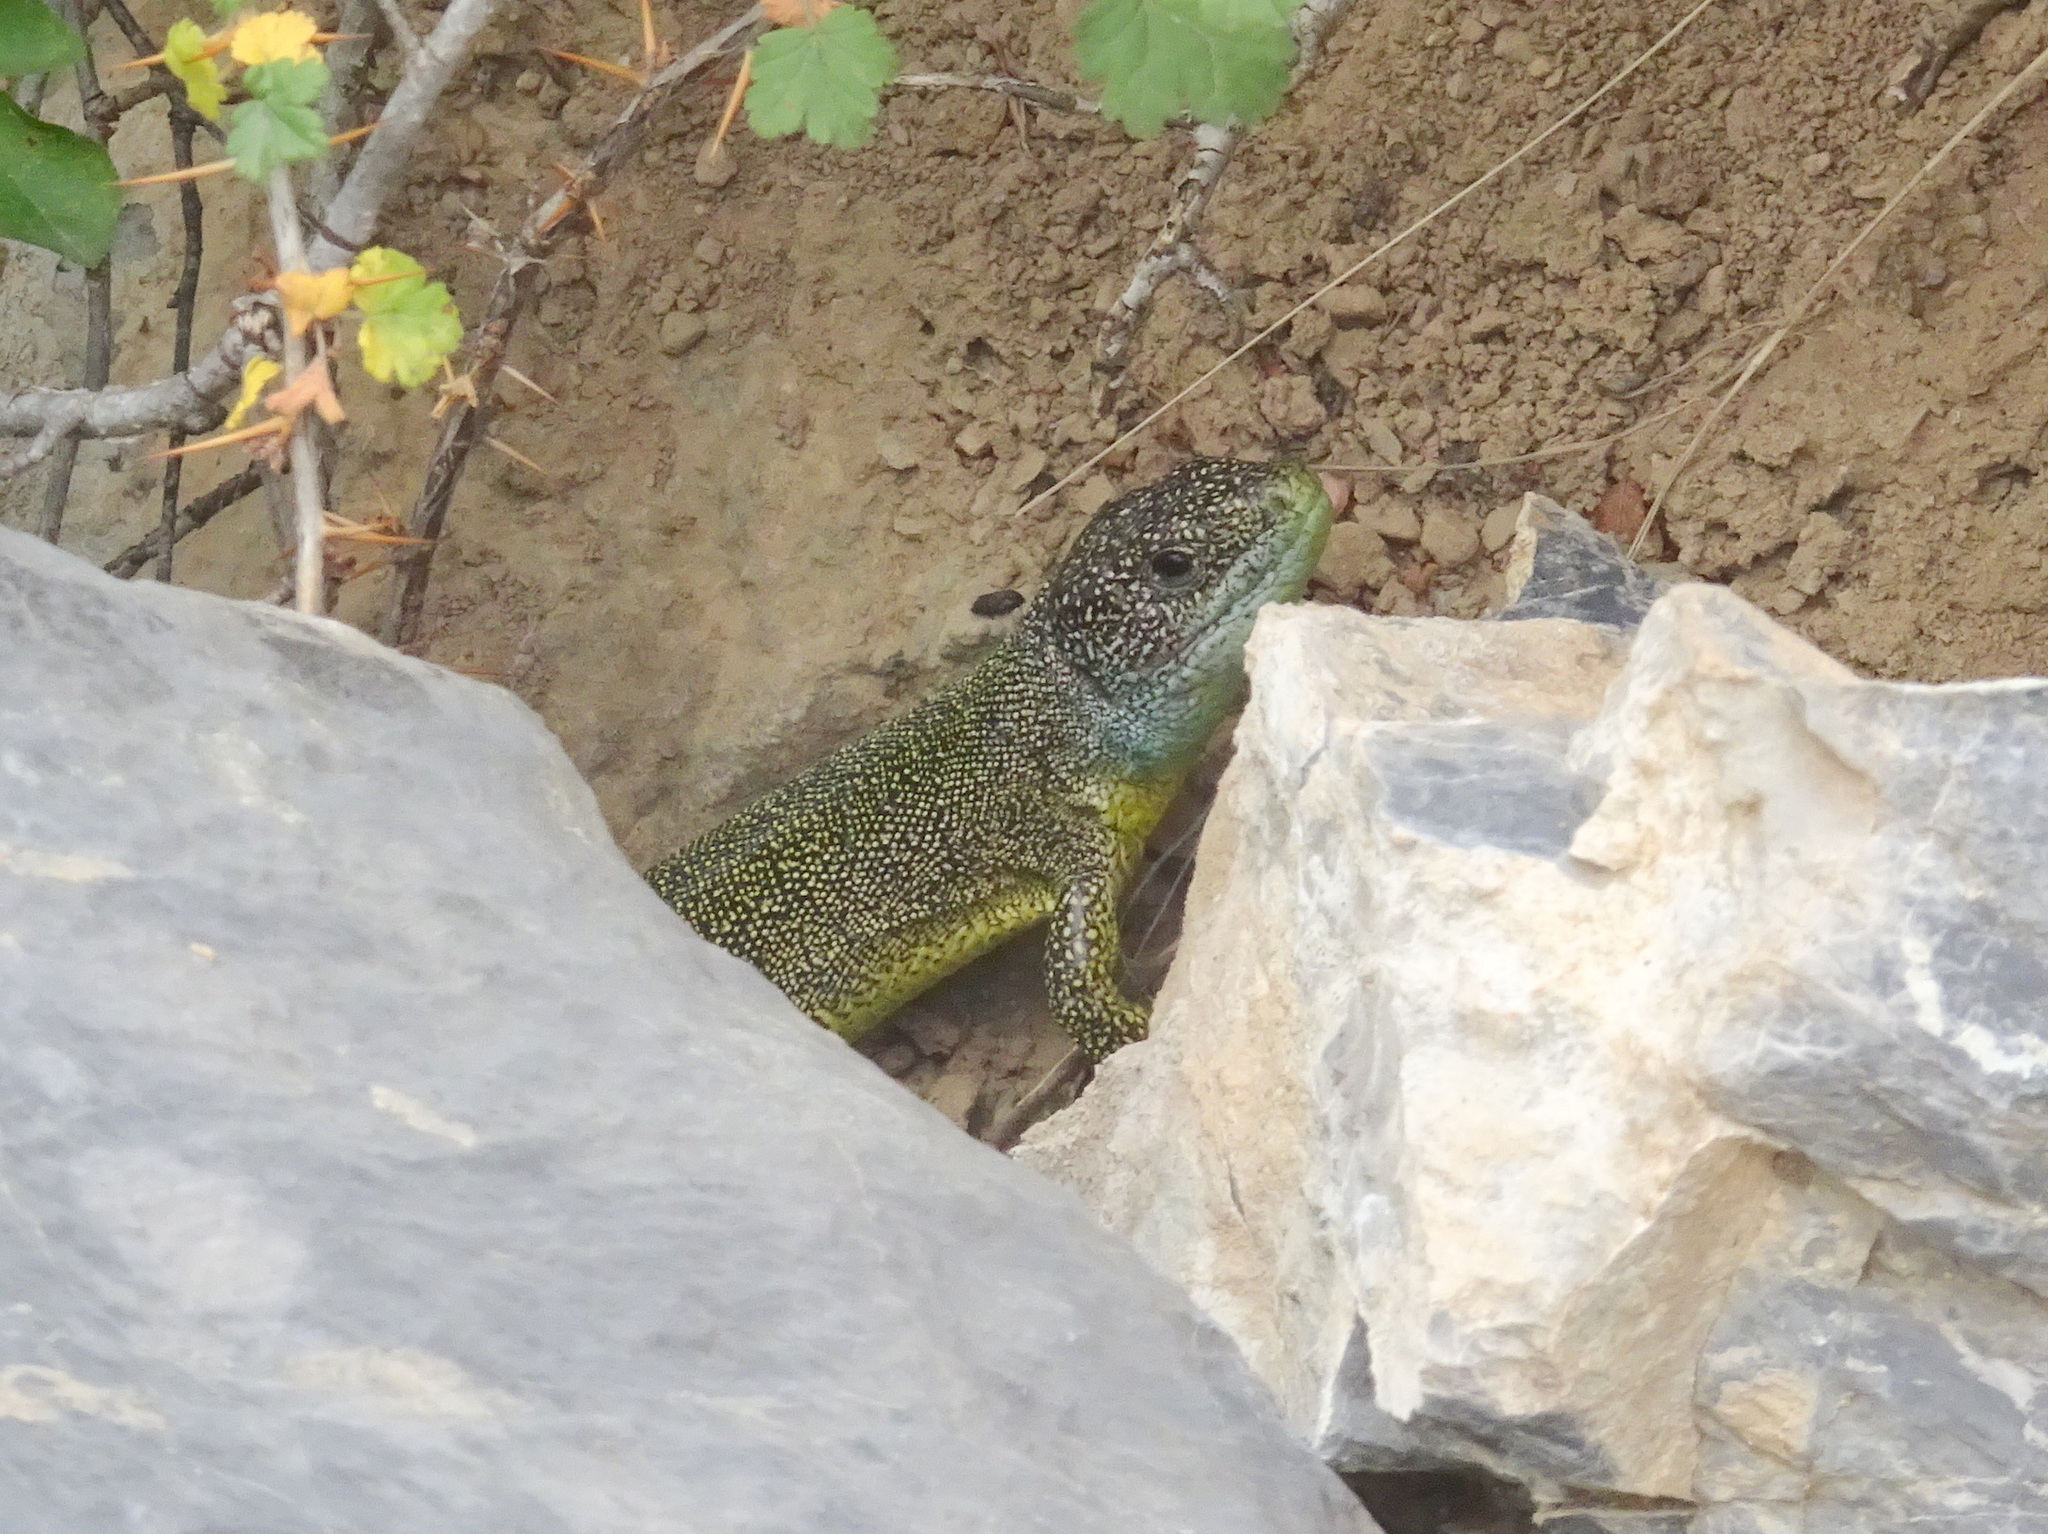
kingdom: Animalia
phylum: Chordata
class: Squamata
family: Lacertidae
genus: Lacerta
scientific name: Lacerta bilineata
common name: Western green lizard
